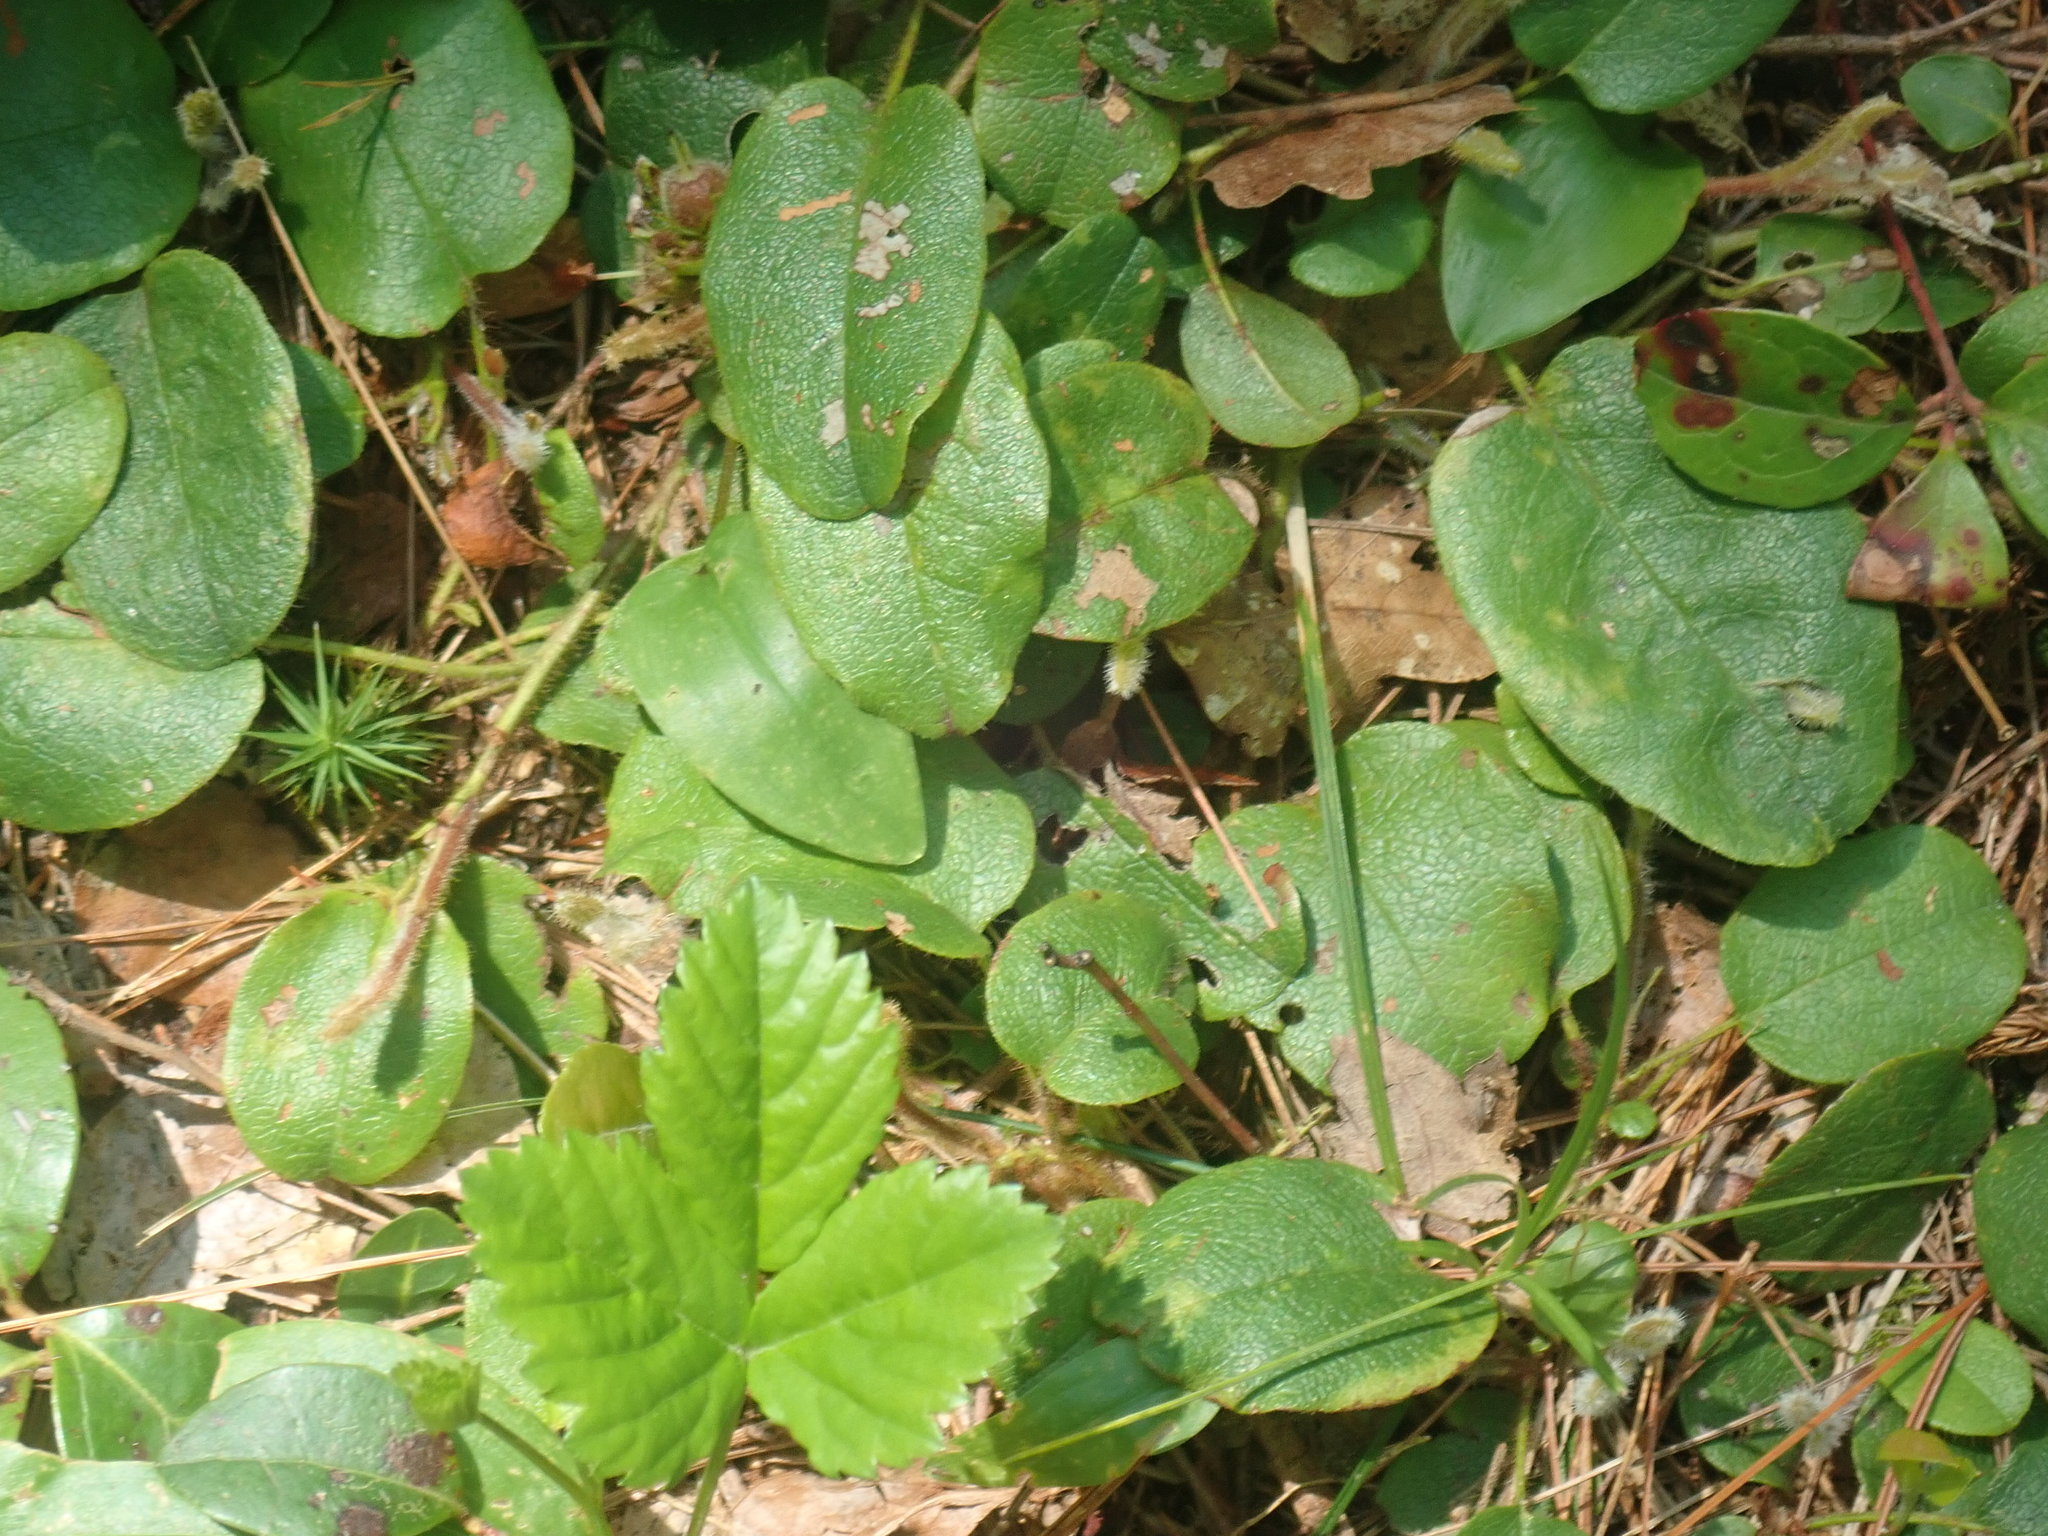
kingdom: Plantae
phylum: Tracheophyta
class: Magnoliopsida
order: Ericales
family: Ericaceae
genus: Epigaea
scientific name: Epigaea repens
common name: Gravelroot
